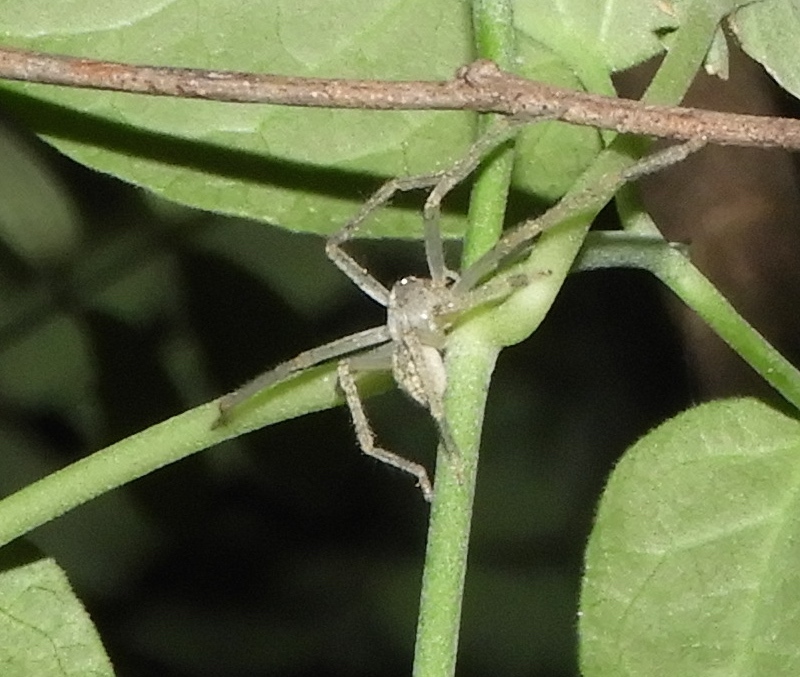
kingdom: Animalia
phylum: Arthropoda
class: Arachnida
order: Araneae
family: Sparassidae
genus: Curicaberis
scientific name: Curicaberis culiacan
